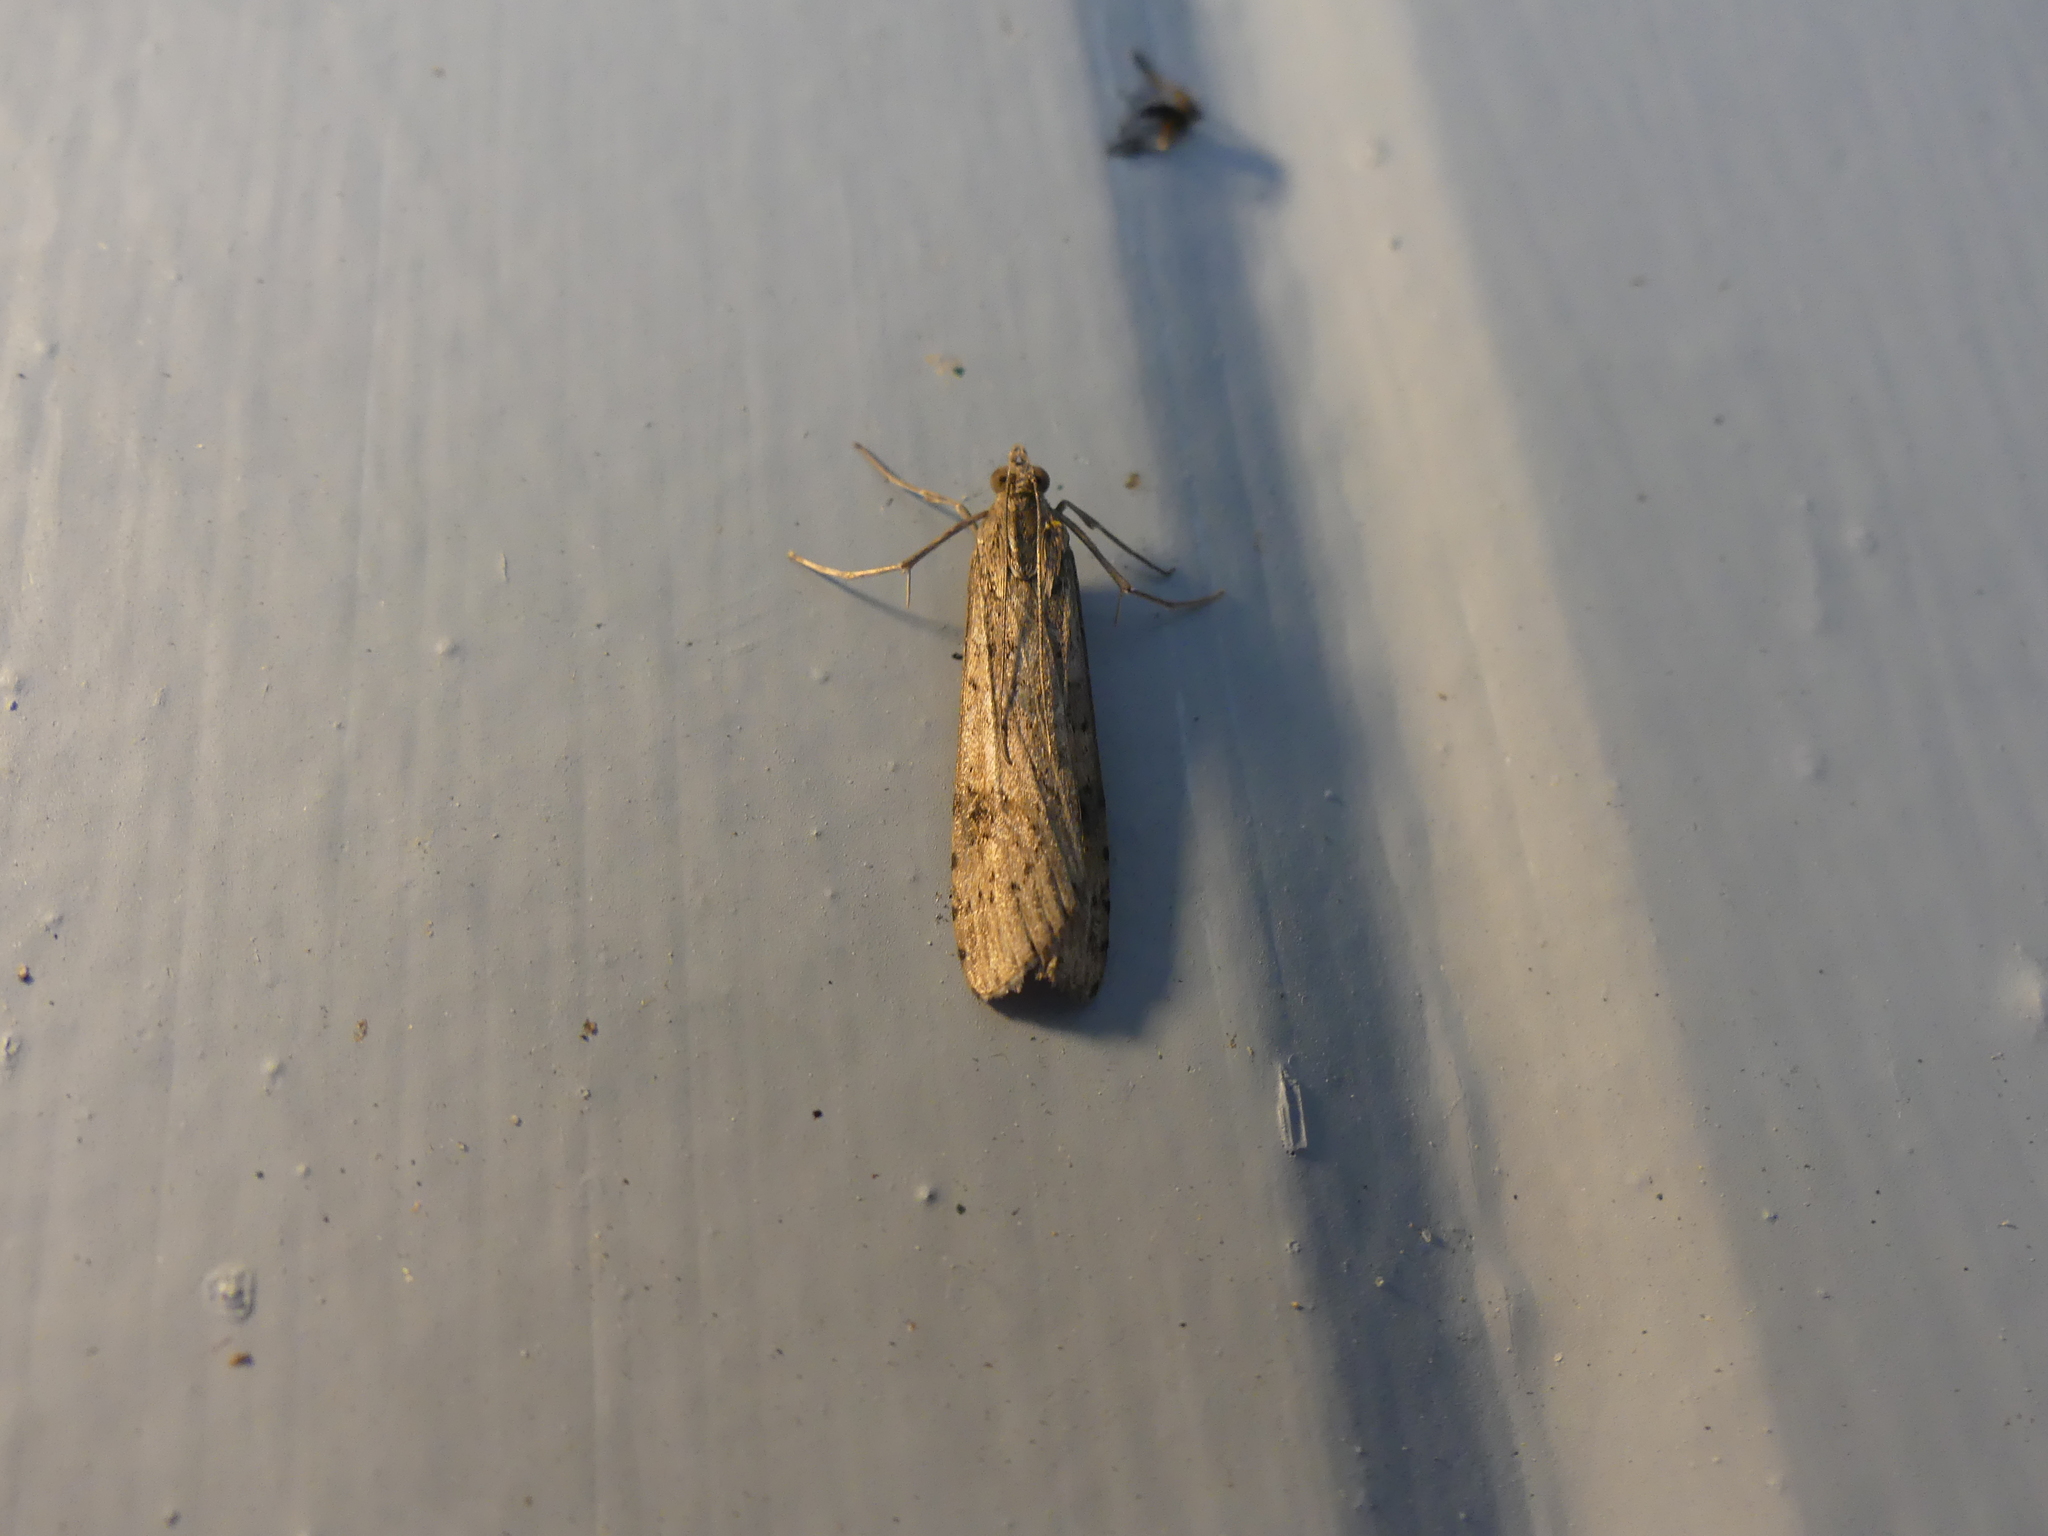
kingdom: Animalia
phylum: Arthropoda
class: Insecta
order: Lepidoptera
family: Crambidae
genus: Nomophila
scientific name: Nomophila nearctica
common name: American rush veneer
